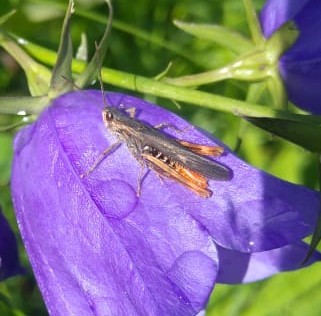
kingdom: Animalia
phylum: Arthropoda
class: Insecta
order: Orthoptera
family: Acrididae
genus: Chorthippus
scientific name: Chorthippus brunneus
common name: Field grasshopper
